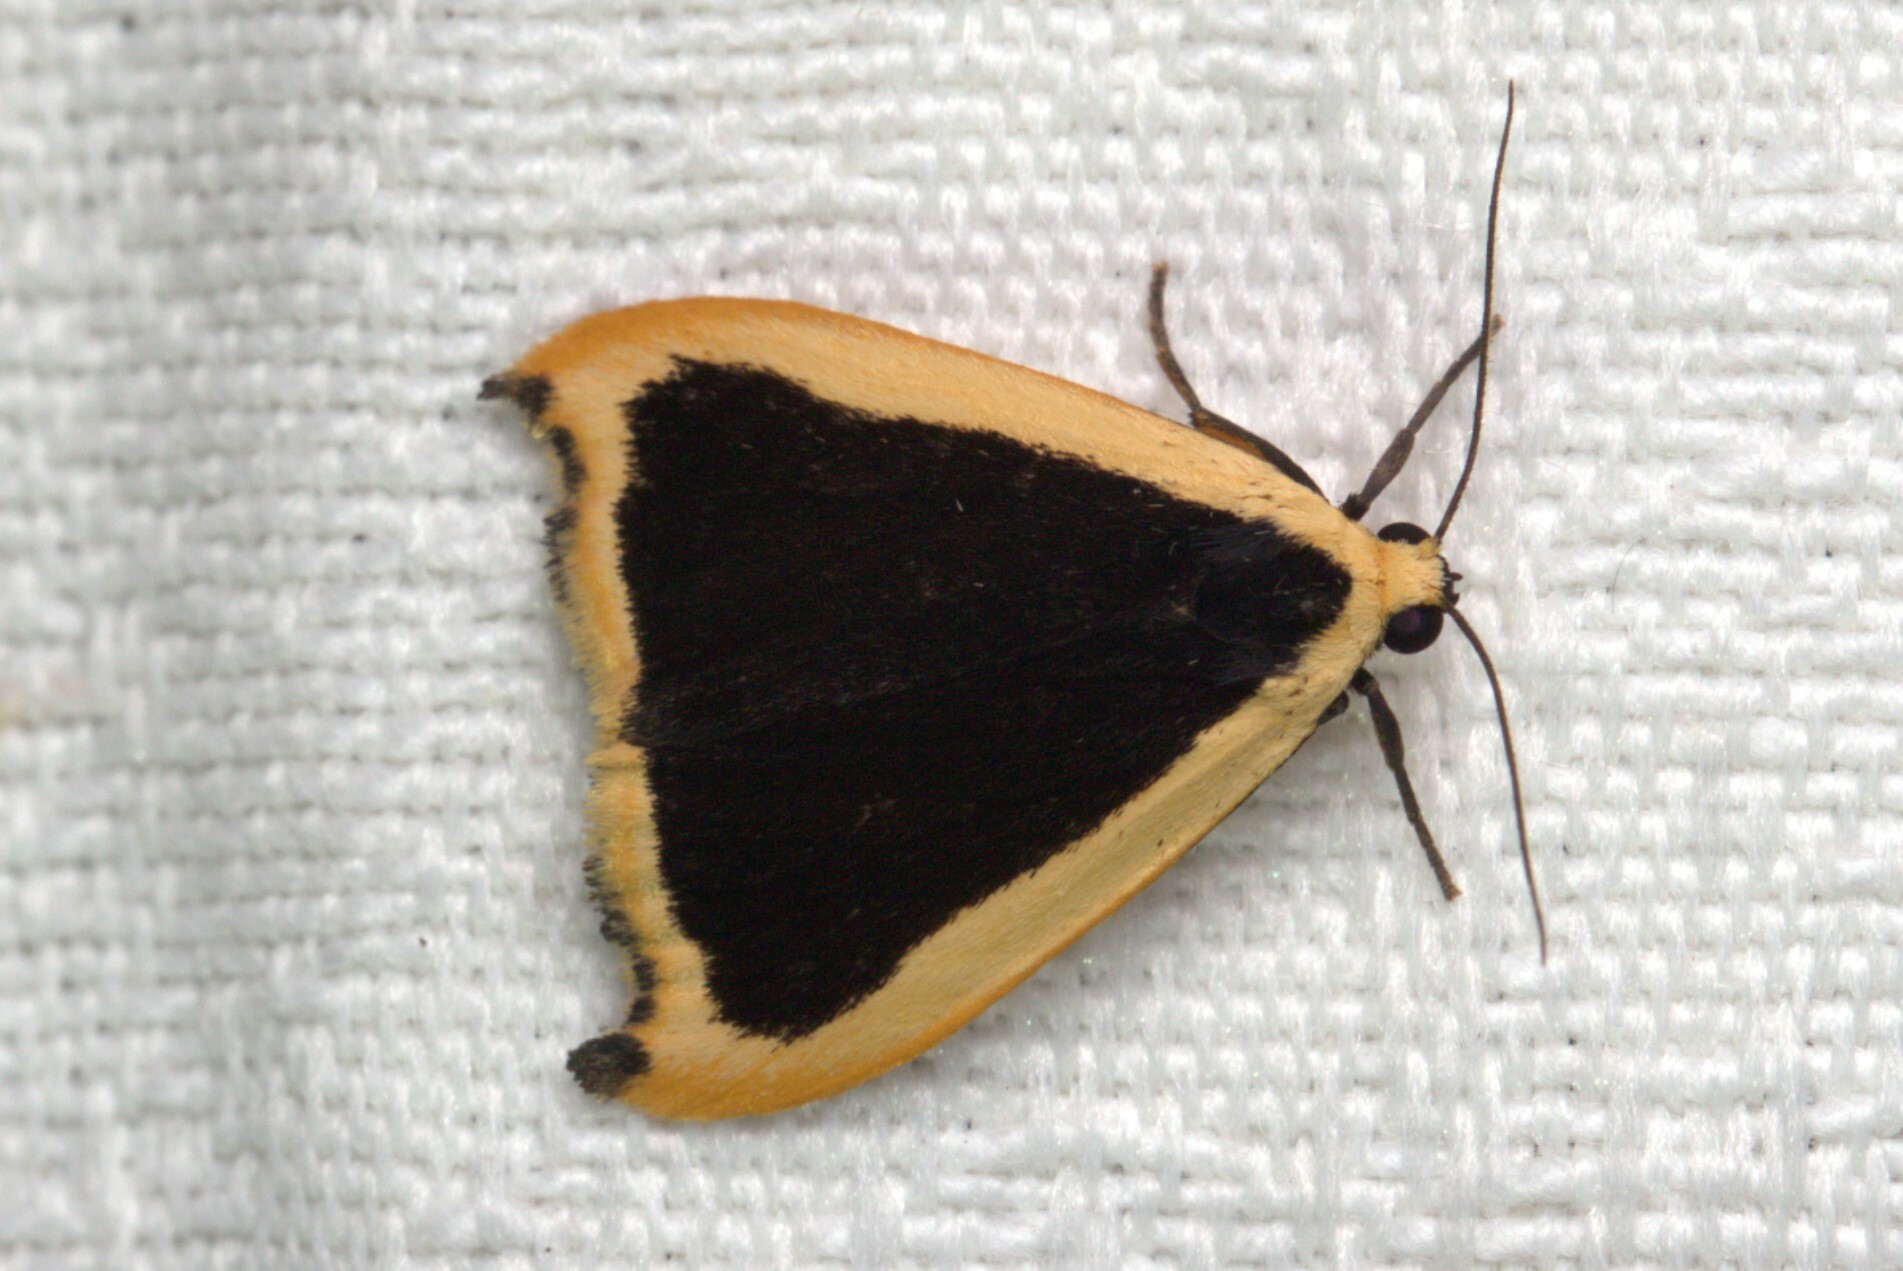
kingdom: Animalia
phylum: Arthropoda
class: Insecta
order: Lepidoptera
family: Erebidae
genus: Termessa
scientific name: Termessa conographa
